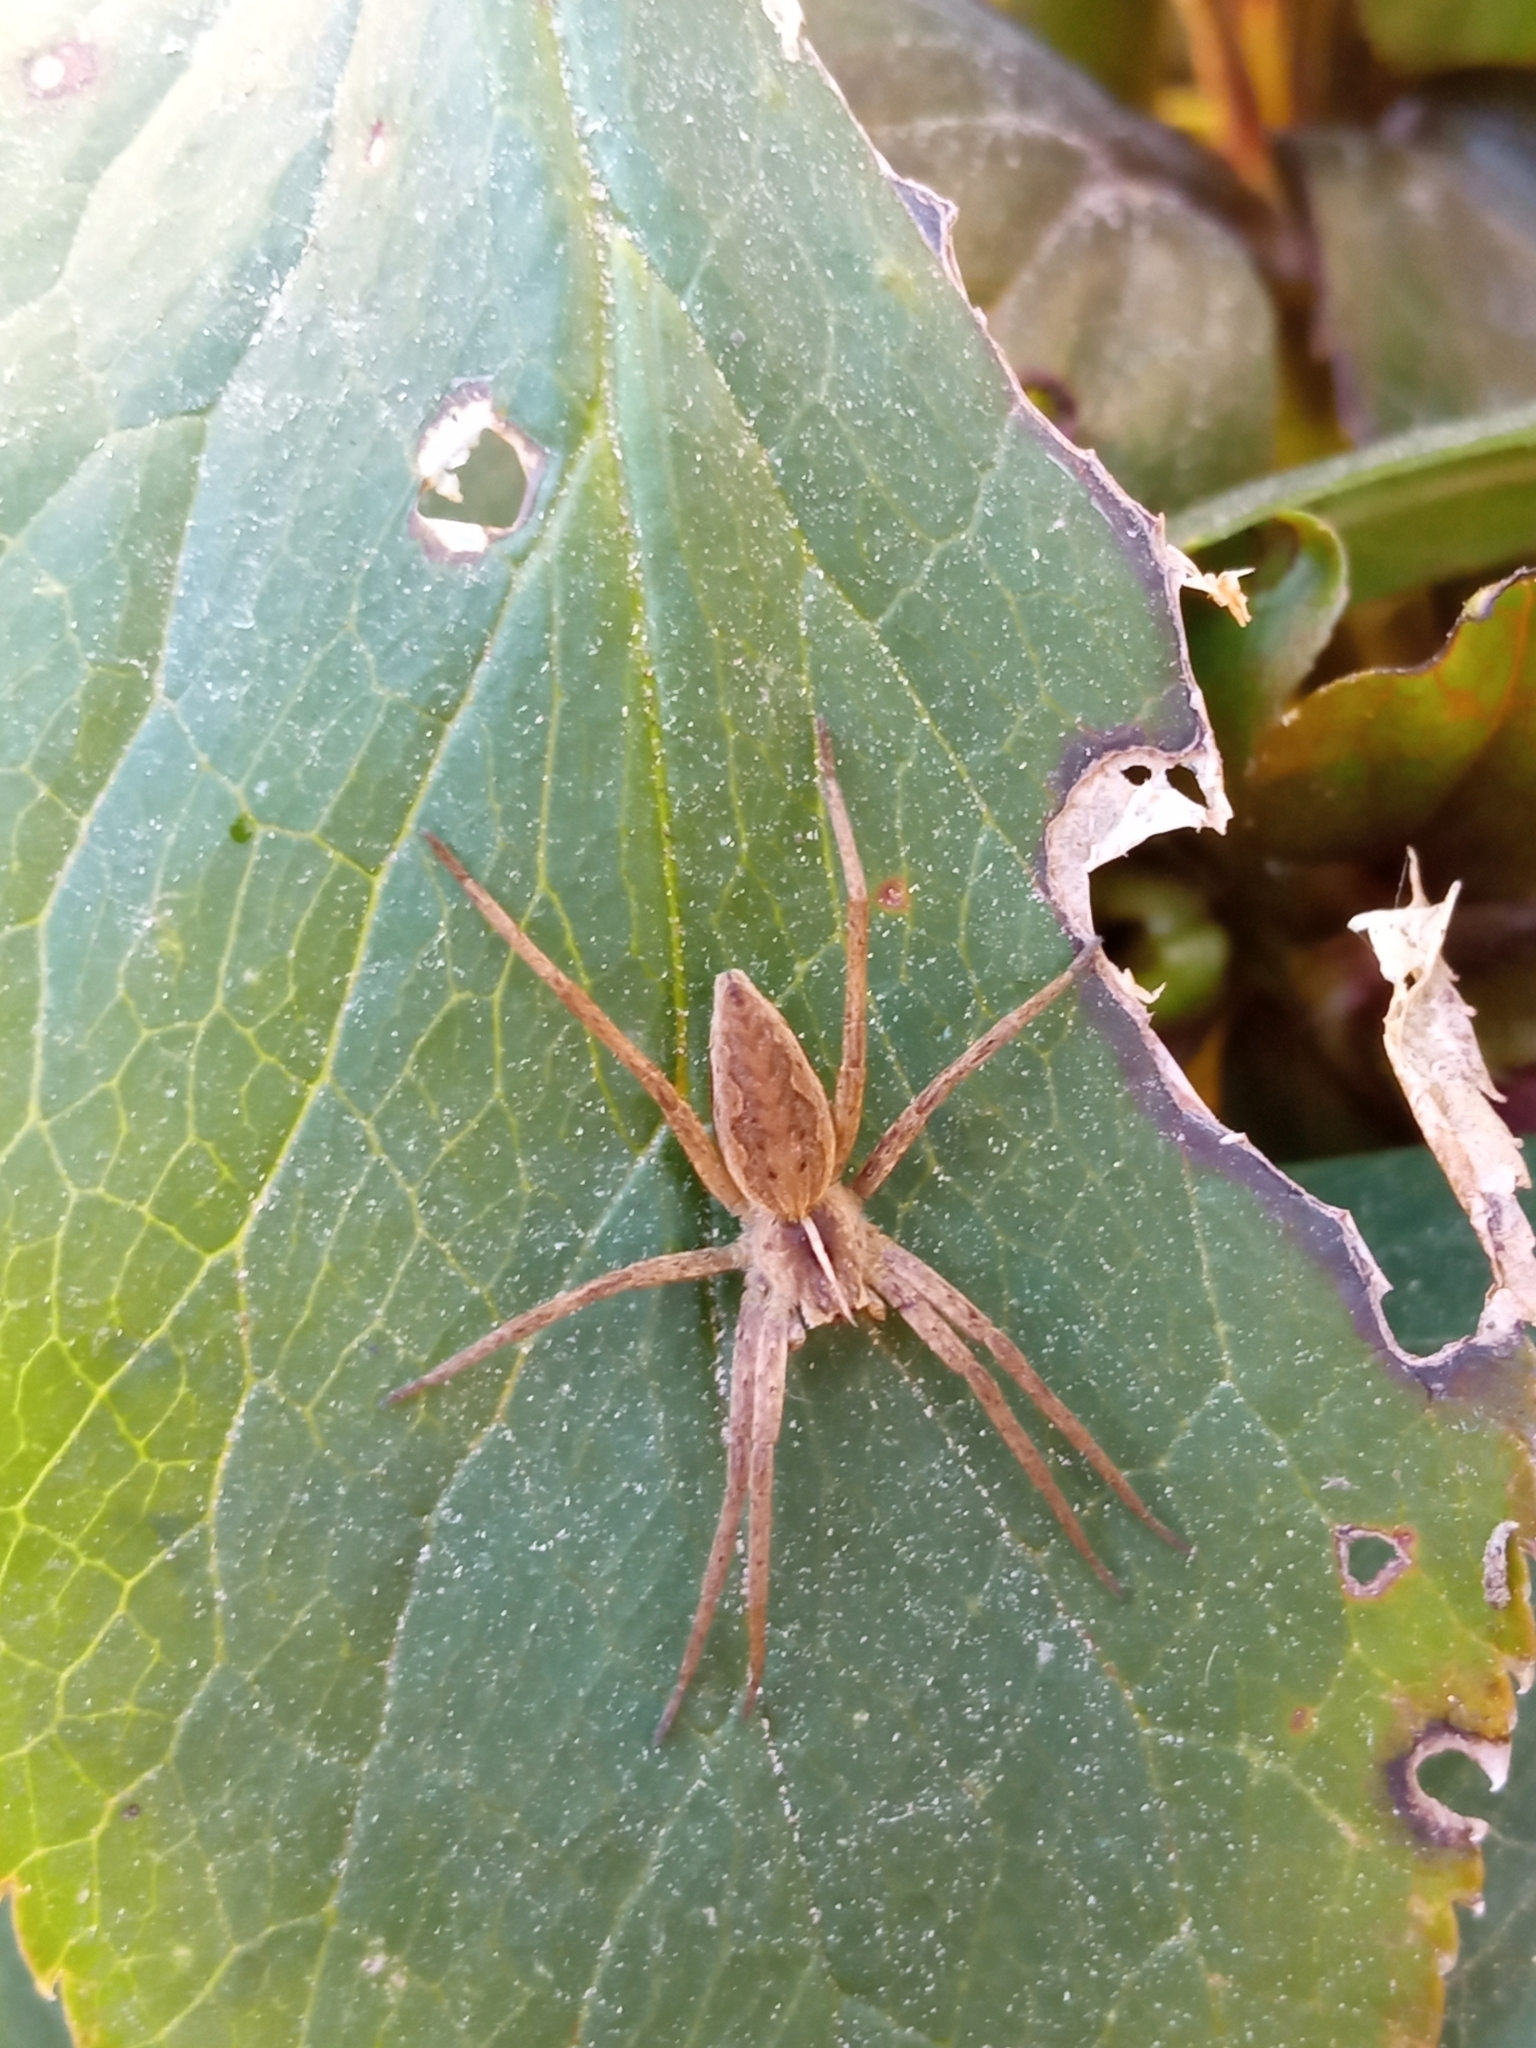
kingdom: Animalia
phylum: Arthropoda
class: Arachnida
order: Araneae
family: Pisauridae
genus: Pisaura
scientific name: Pisaura mirabilis
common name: Tent spider
